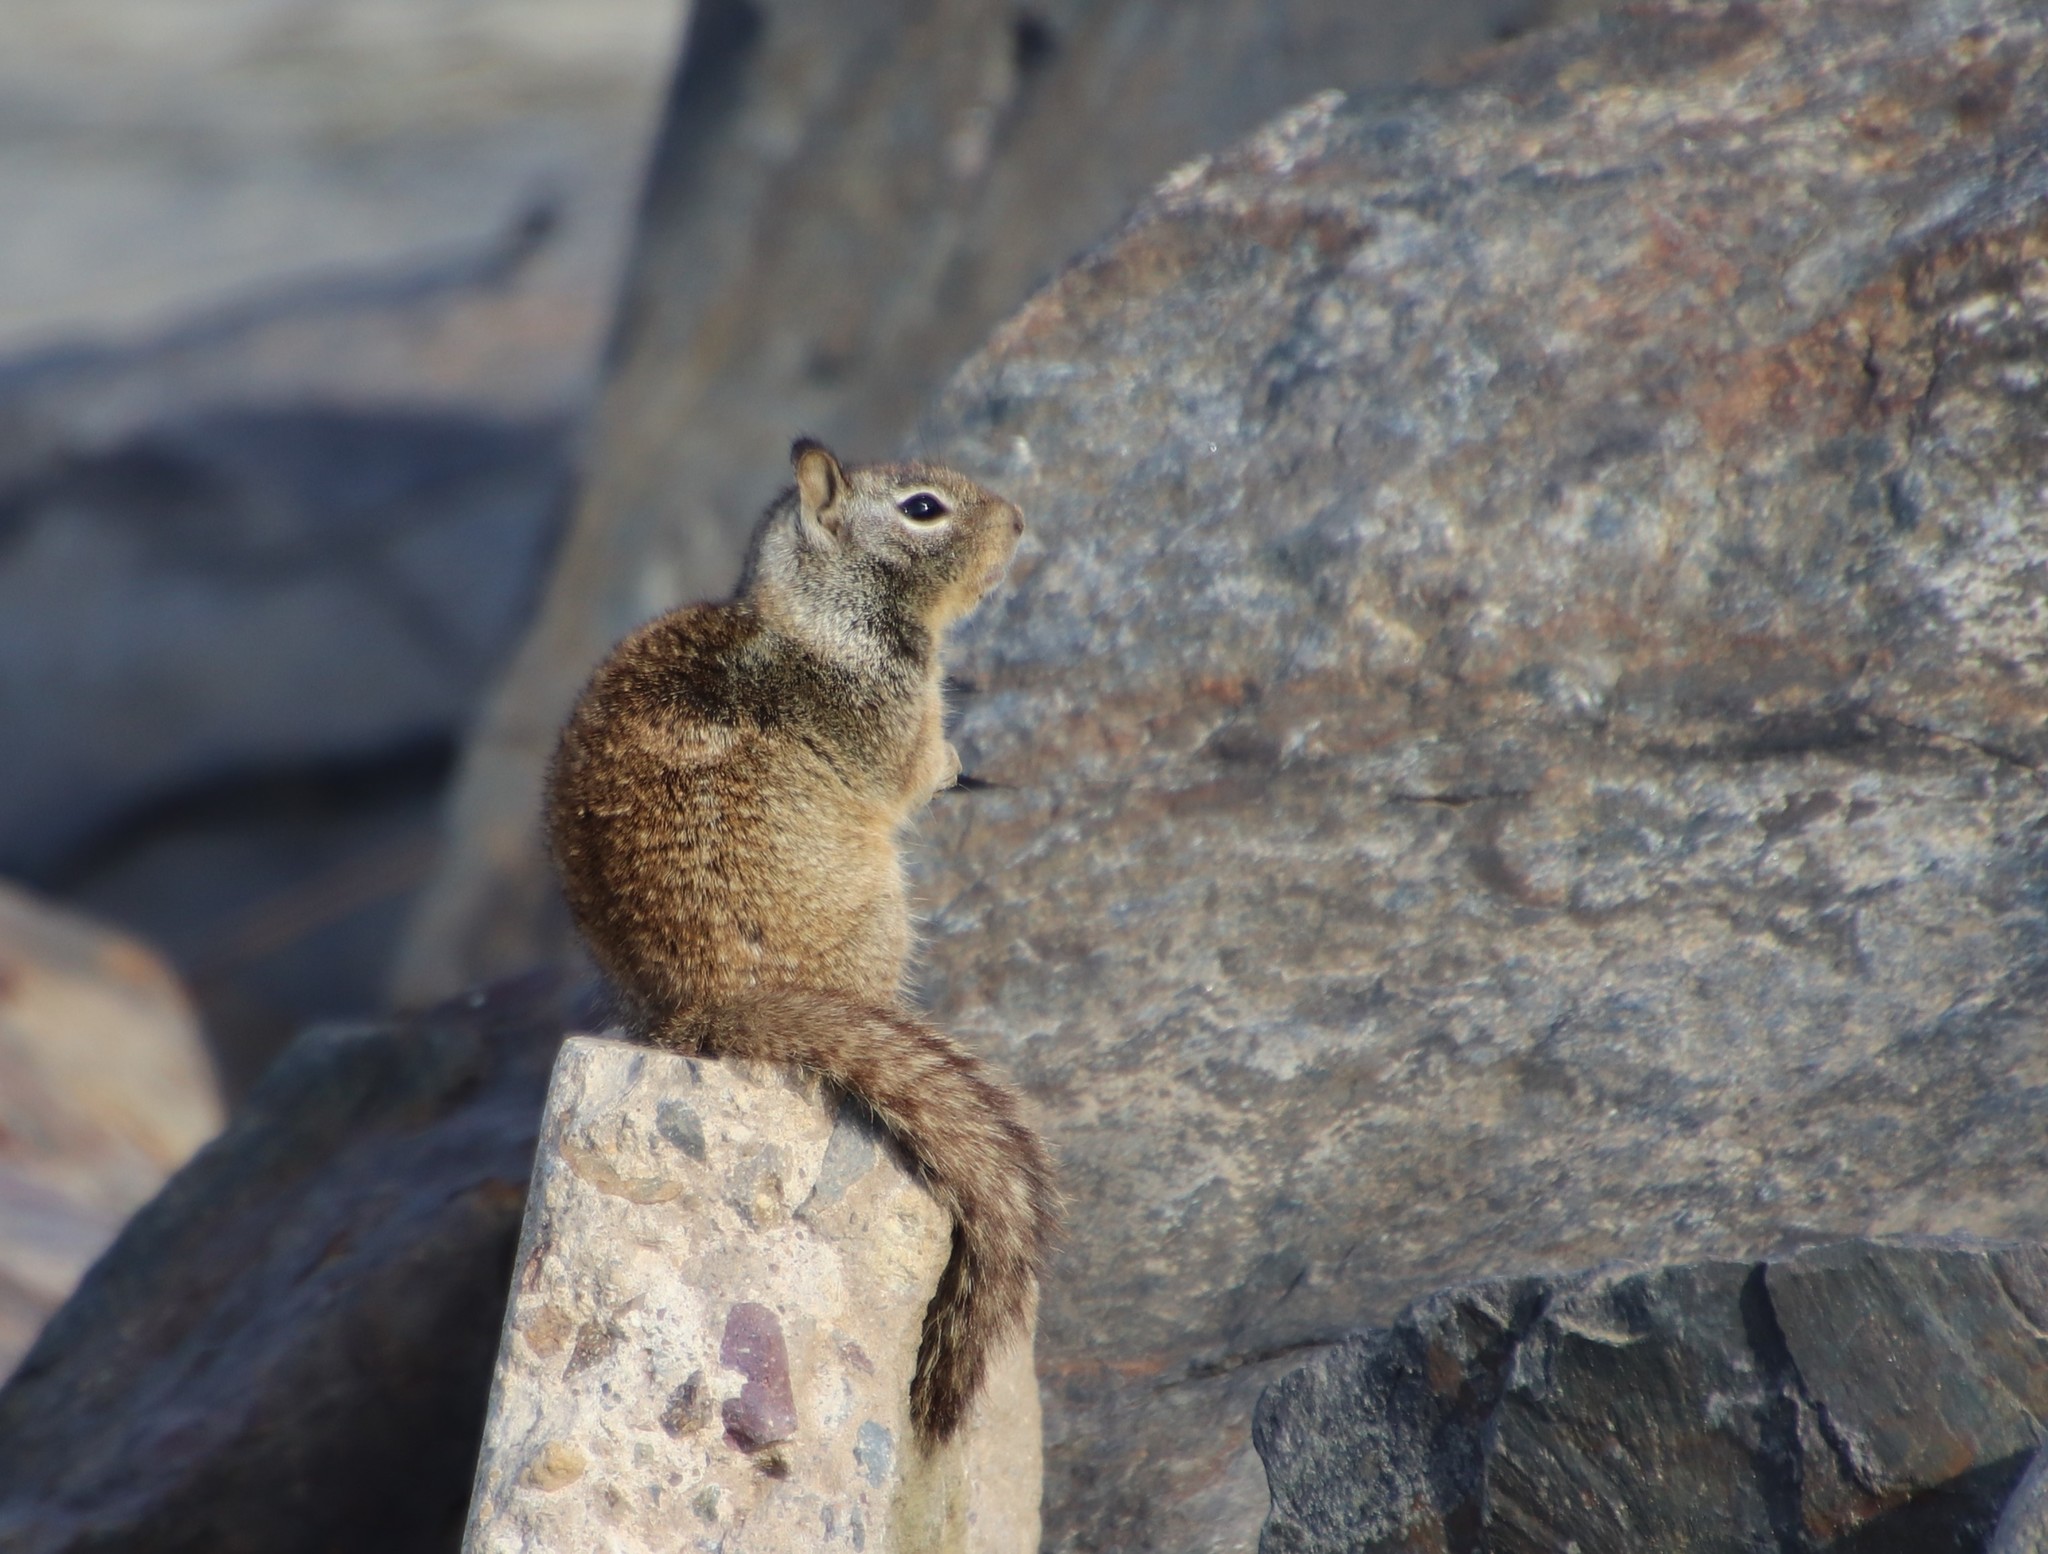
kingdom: Animalia
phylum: Chordata
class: Mammalia
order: Rodentia
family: Sciuridae
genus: Otospermophilus
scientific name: Otospermophilus beecheyi
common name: California ground squirrel
